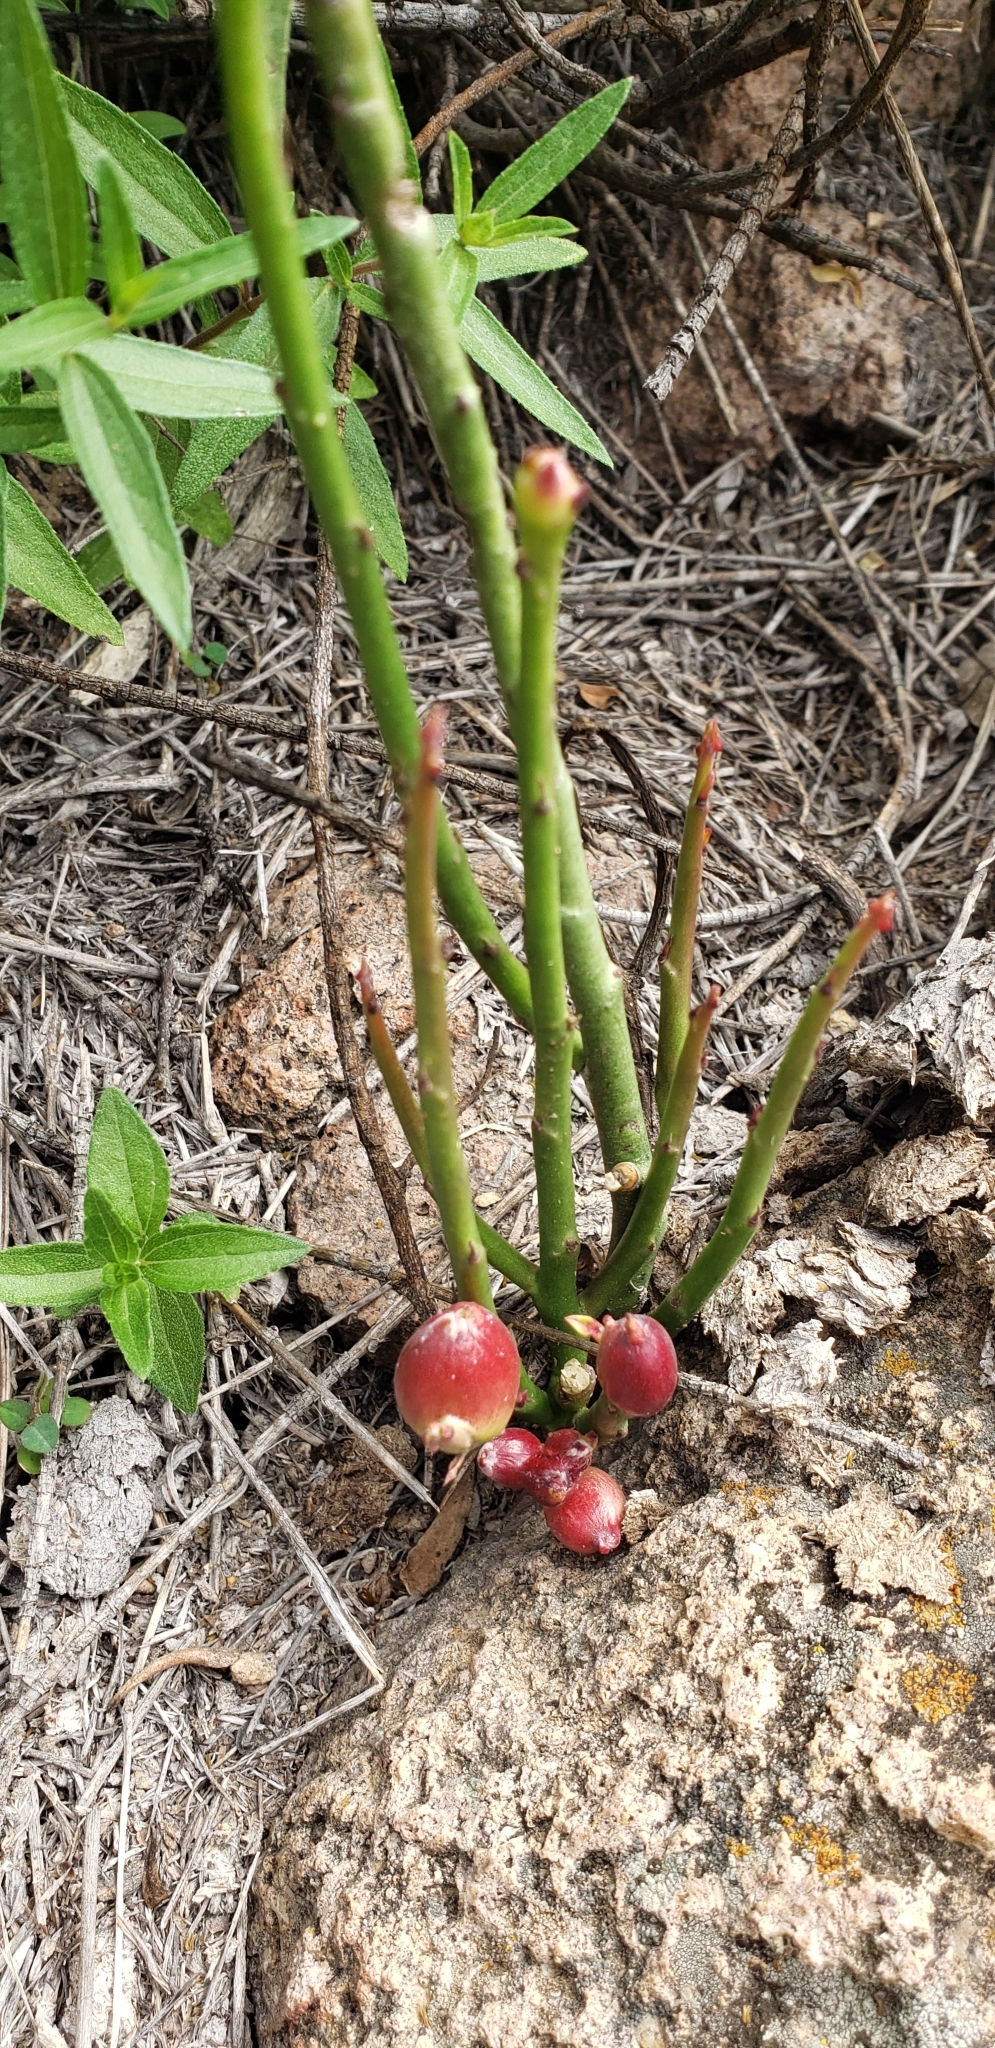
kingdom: Plantae
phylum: Tracheophyta
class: Magnoliopsida
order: Malpighiales
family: Euphorbiaceae
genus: Euphorbia
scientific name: Euphorbia antisyphilitica
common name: Candelilla
